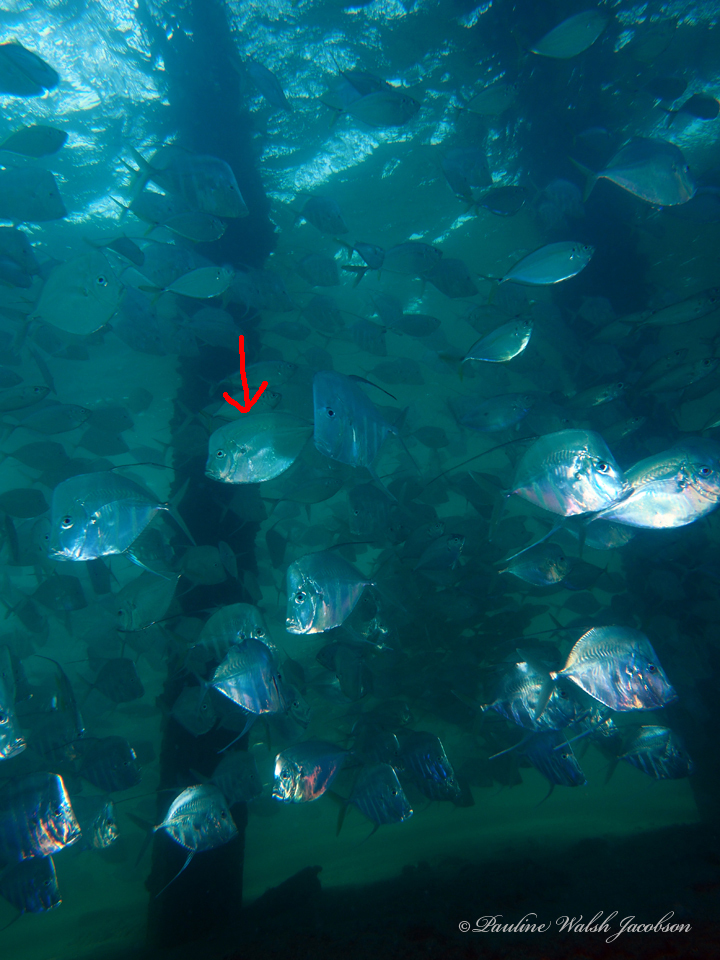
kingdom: Animalia
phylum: Chordata
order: Perciformes
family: Carangidae
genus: Selene
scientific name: Selene setapinnis
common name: Moonfish
